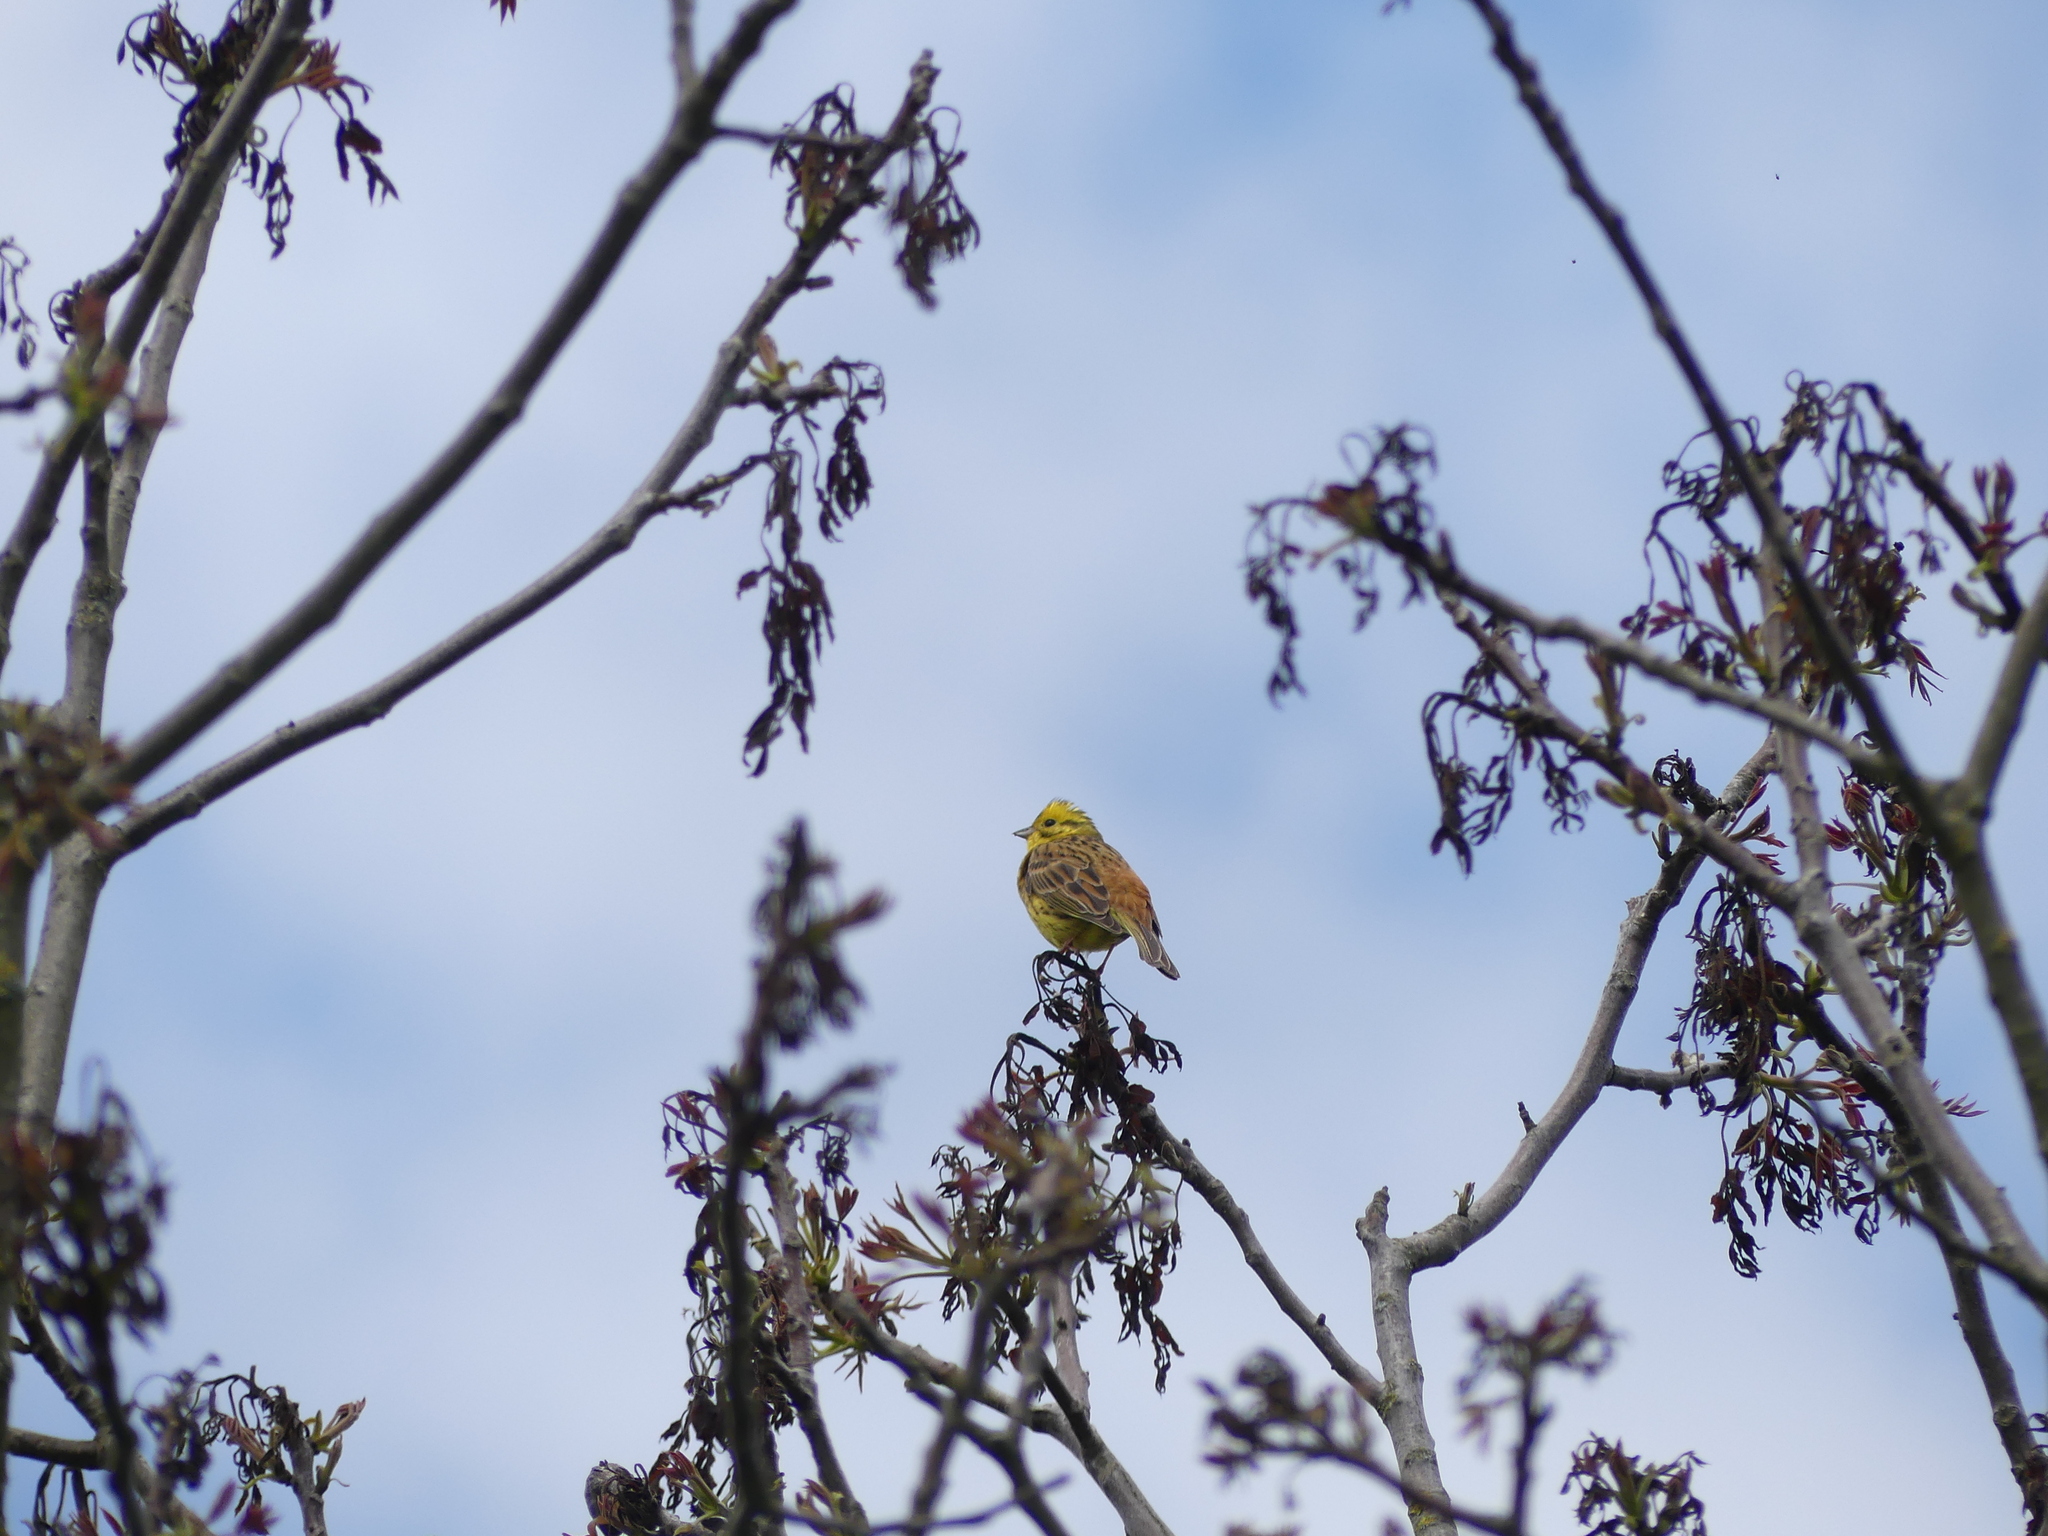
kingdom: Animalia
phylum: Chordata
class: Aves
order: Passeriformes
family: Emberizidae
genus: Emberiza
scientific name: Emberiza citrinella
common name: Yellowhammer
